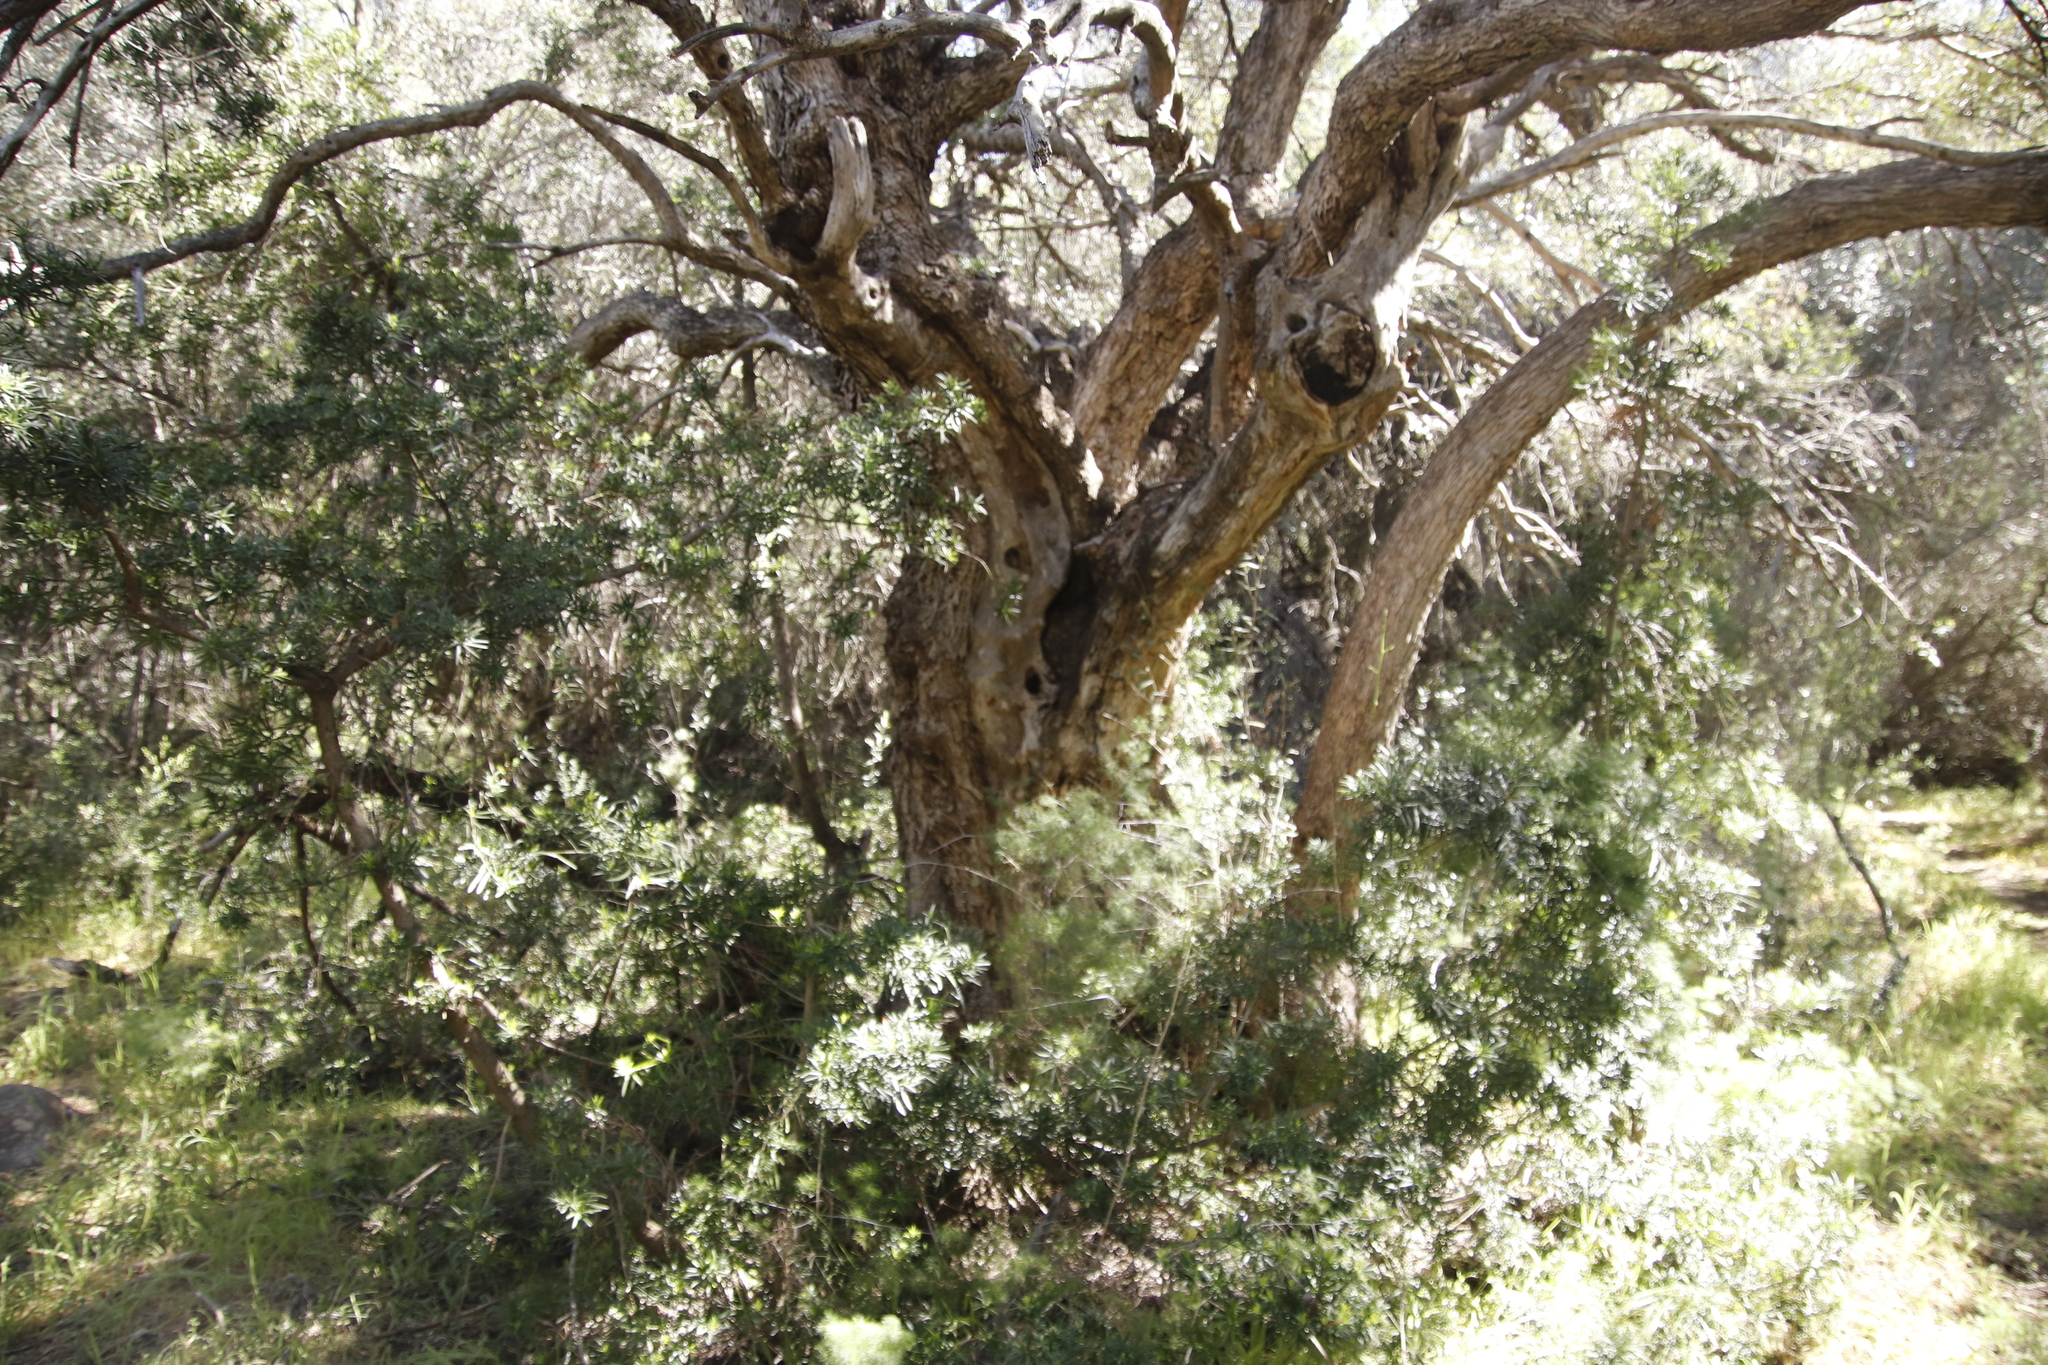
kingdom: Plantae
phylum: Tracheophyta
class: Pinopsida
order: Pinales
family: Podocarpaceae
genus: Podocarpus
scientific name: Podocarpus elongatus
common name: Breede river yellowwood
